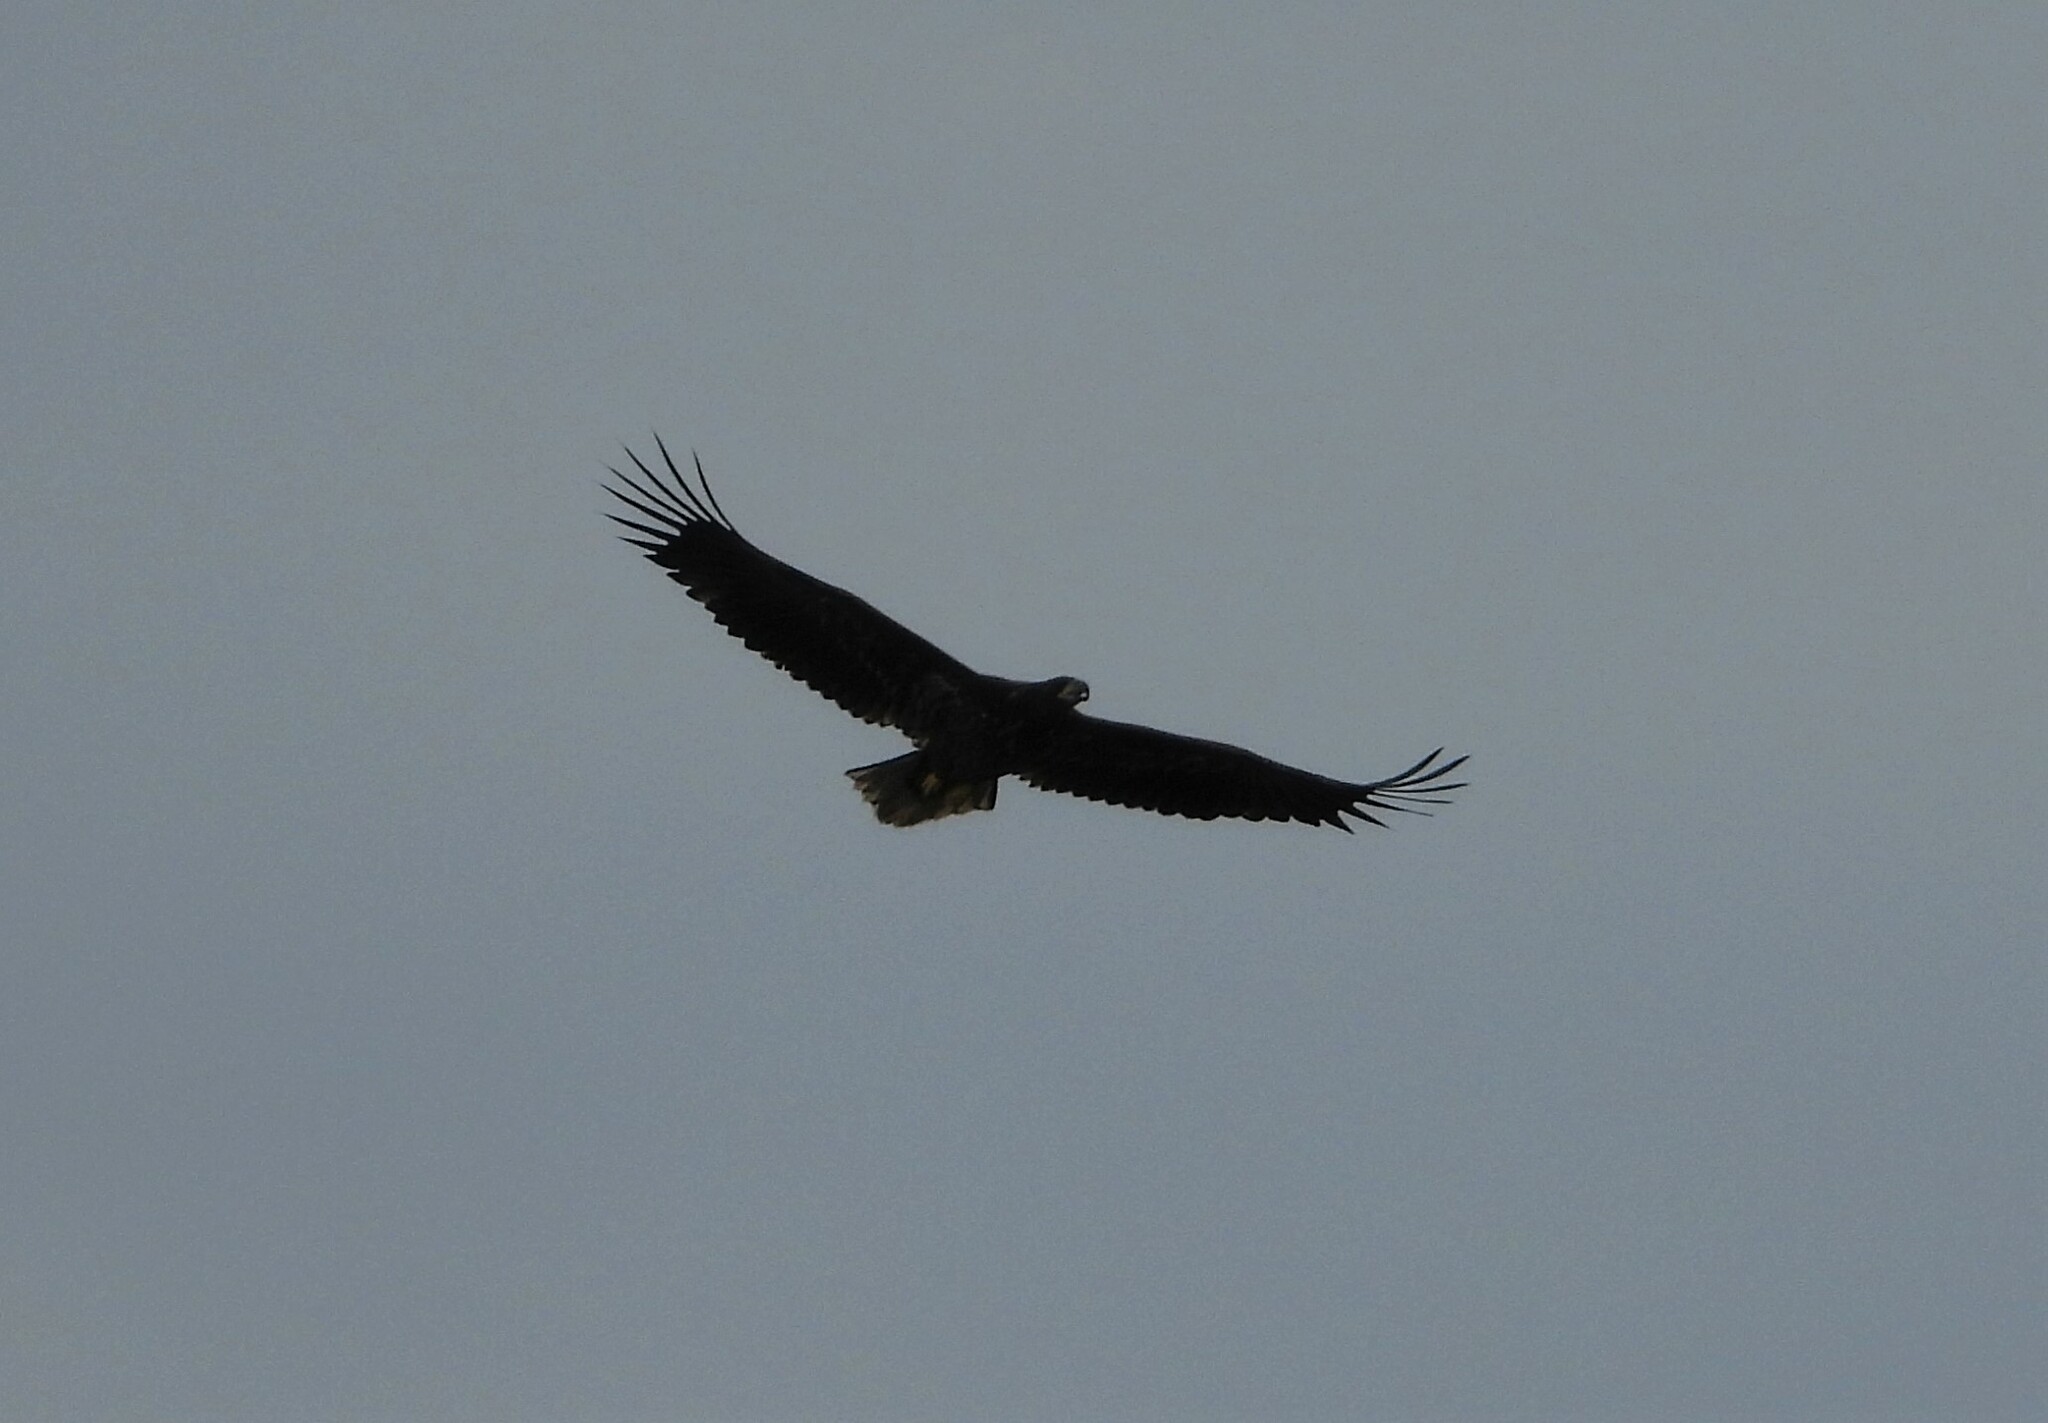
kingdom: Animalia
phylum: Chordata
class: Aves
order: Accipitriformes
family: Accipitridae
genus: Haliaeetus
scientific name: Haliaeetus albicilla
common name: White-tailed eagle
